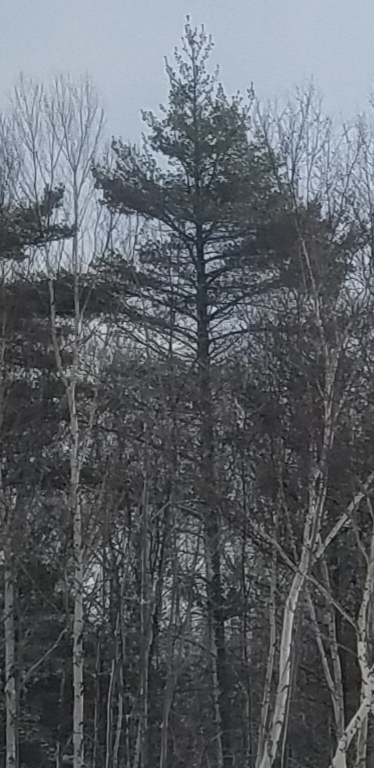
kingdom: Plantae
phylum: Tracheophyta
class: Pinopsida
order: Pinales
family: Pinaceae
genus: Pinus
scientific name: Pinus strobus
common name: Weymouth pine
